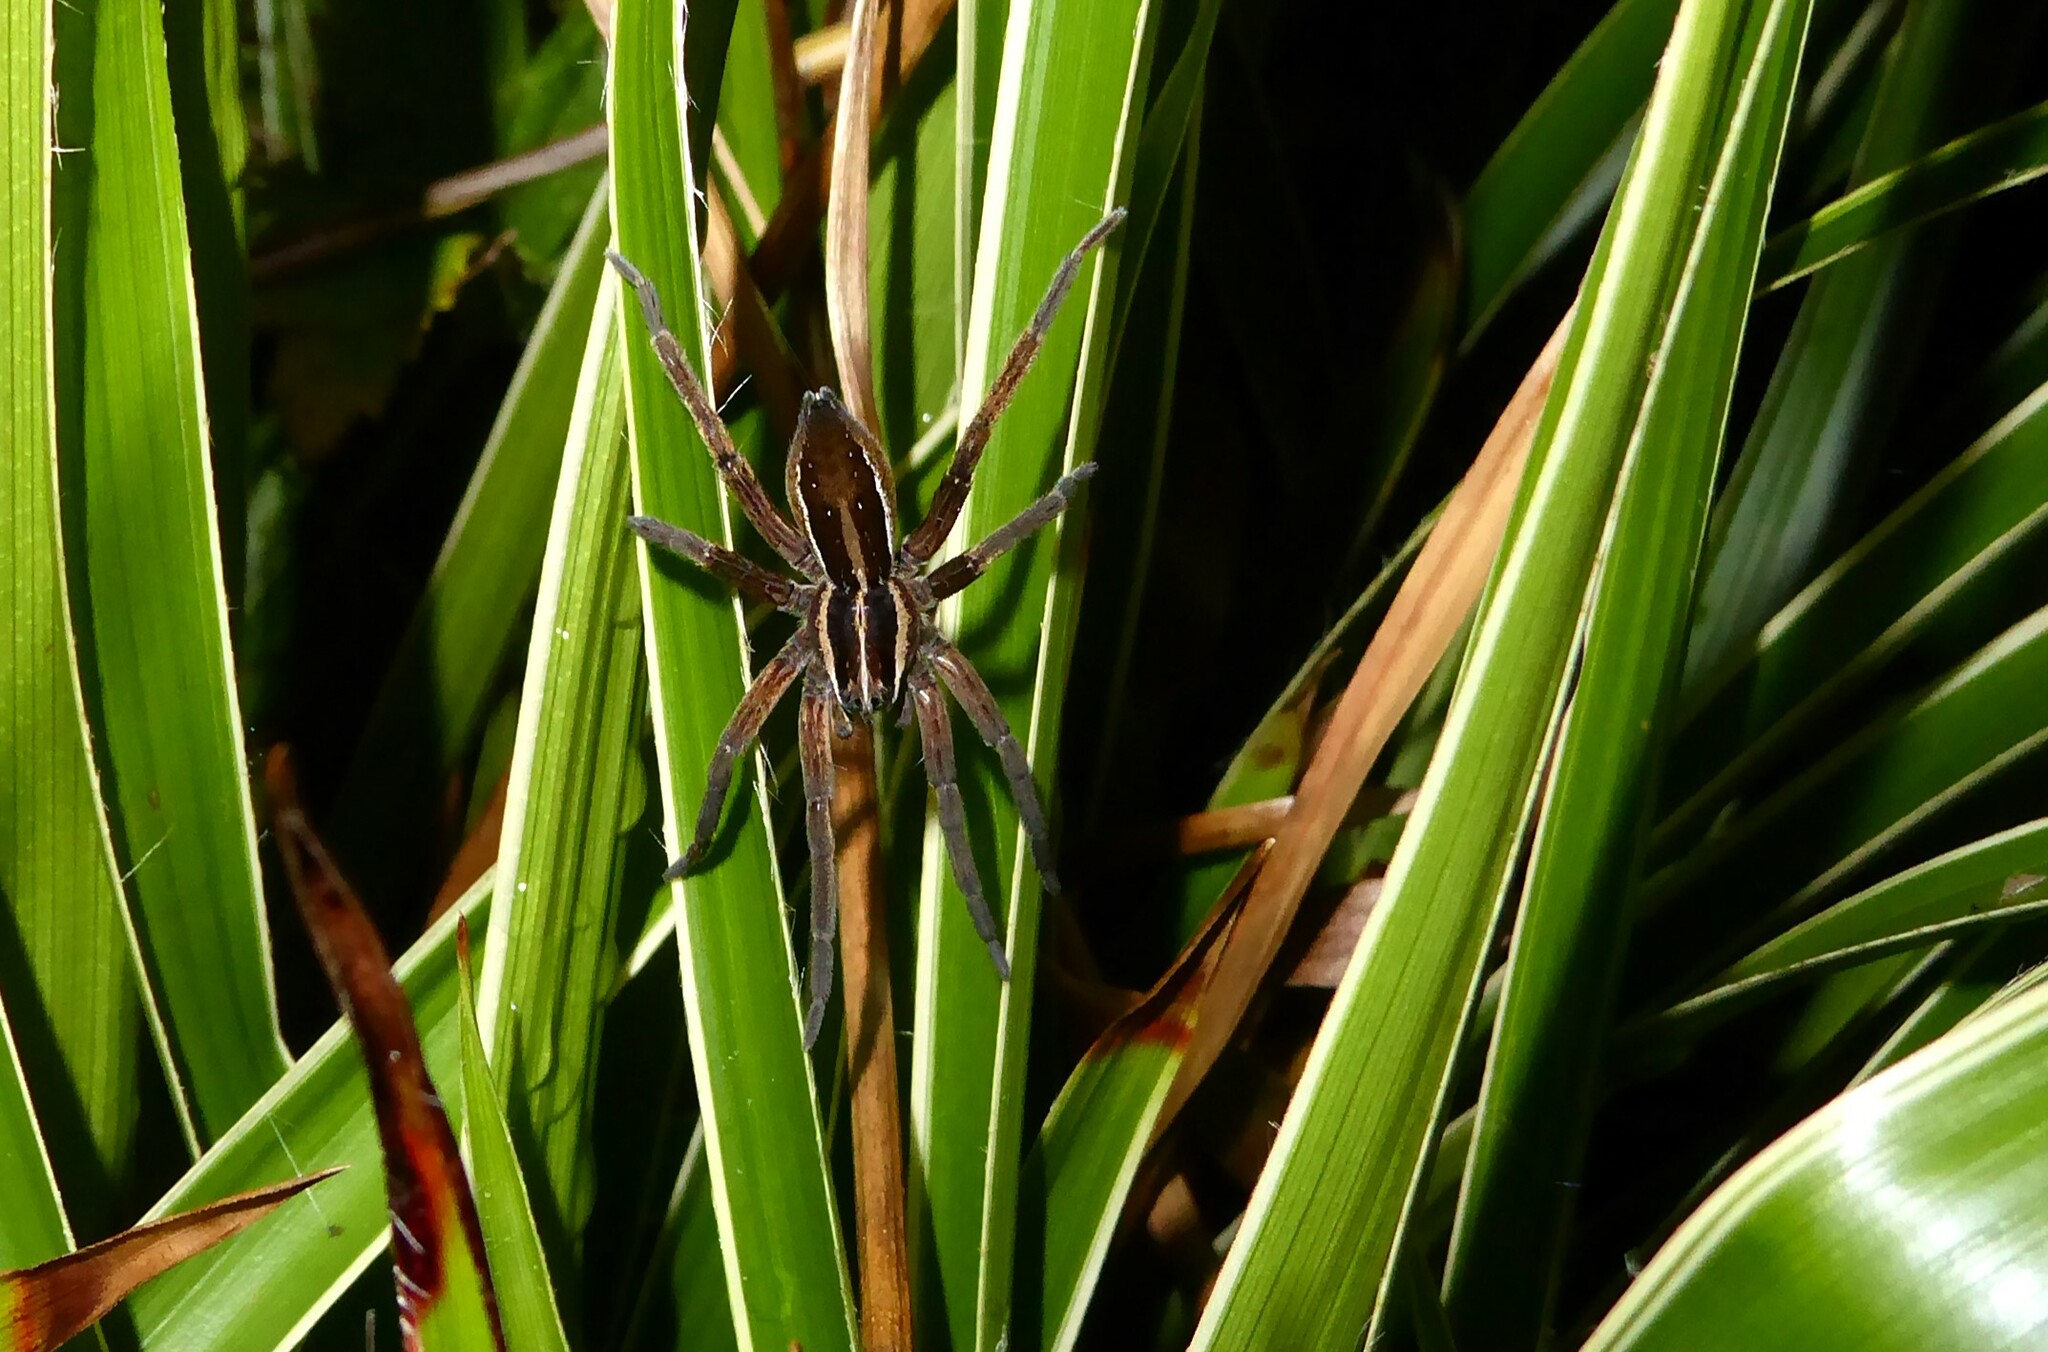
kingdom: Animalia
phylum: Arthropoda
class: Arachnida
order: Araneae
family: Pisauridae
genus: Dolomedes
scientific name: Dolomedes minor
